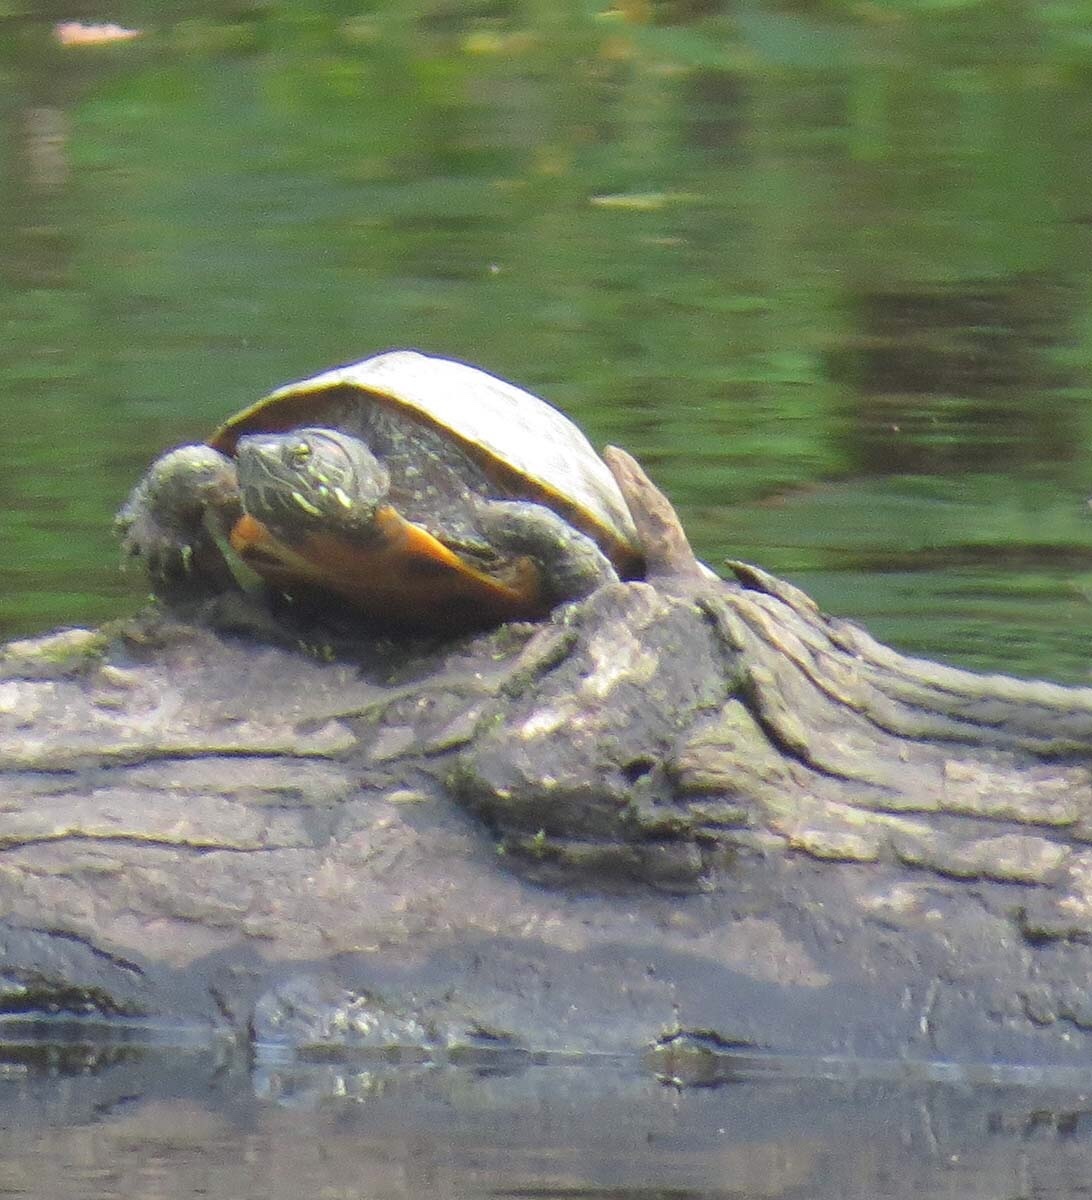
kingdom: Animalia
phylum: Chordata
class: Testudines
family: Emydidae
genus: Trachemys
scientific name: Trachemys scripta
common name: Slider
